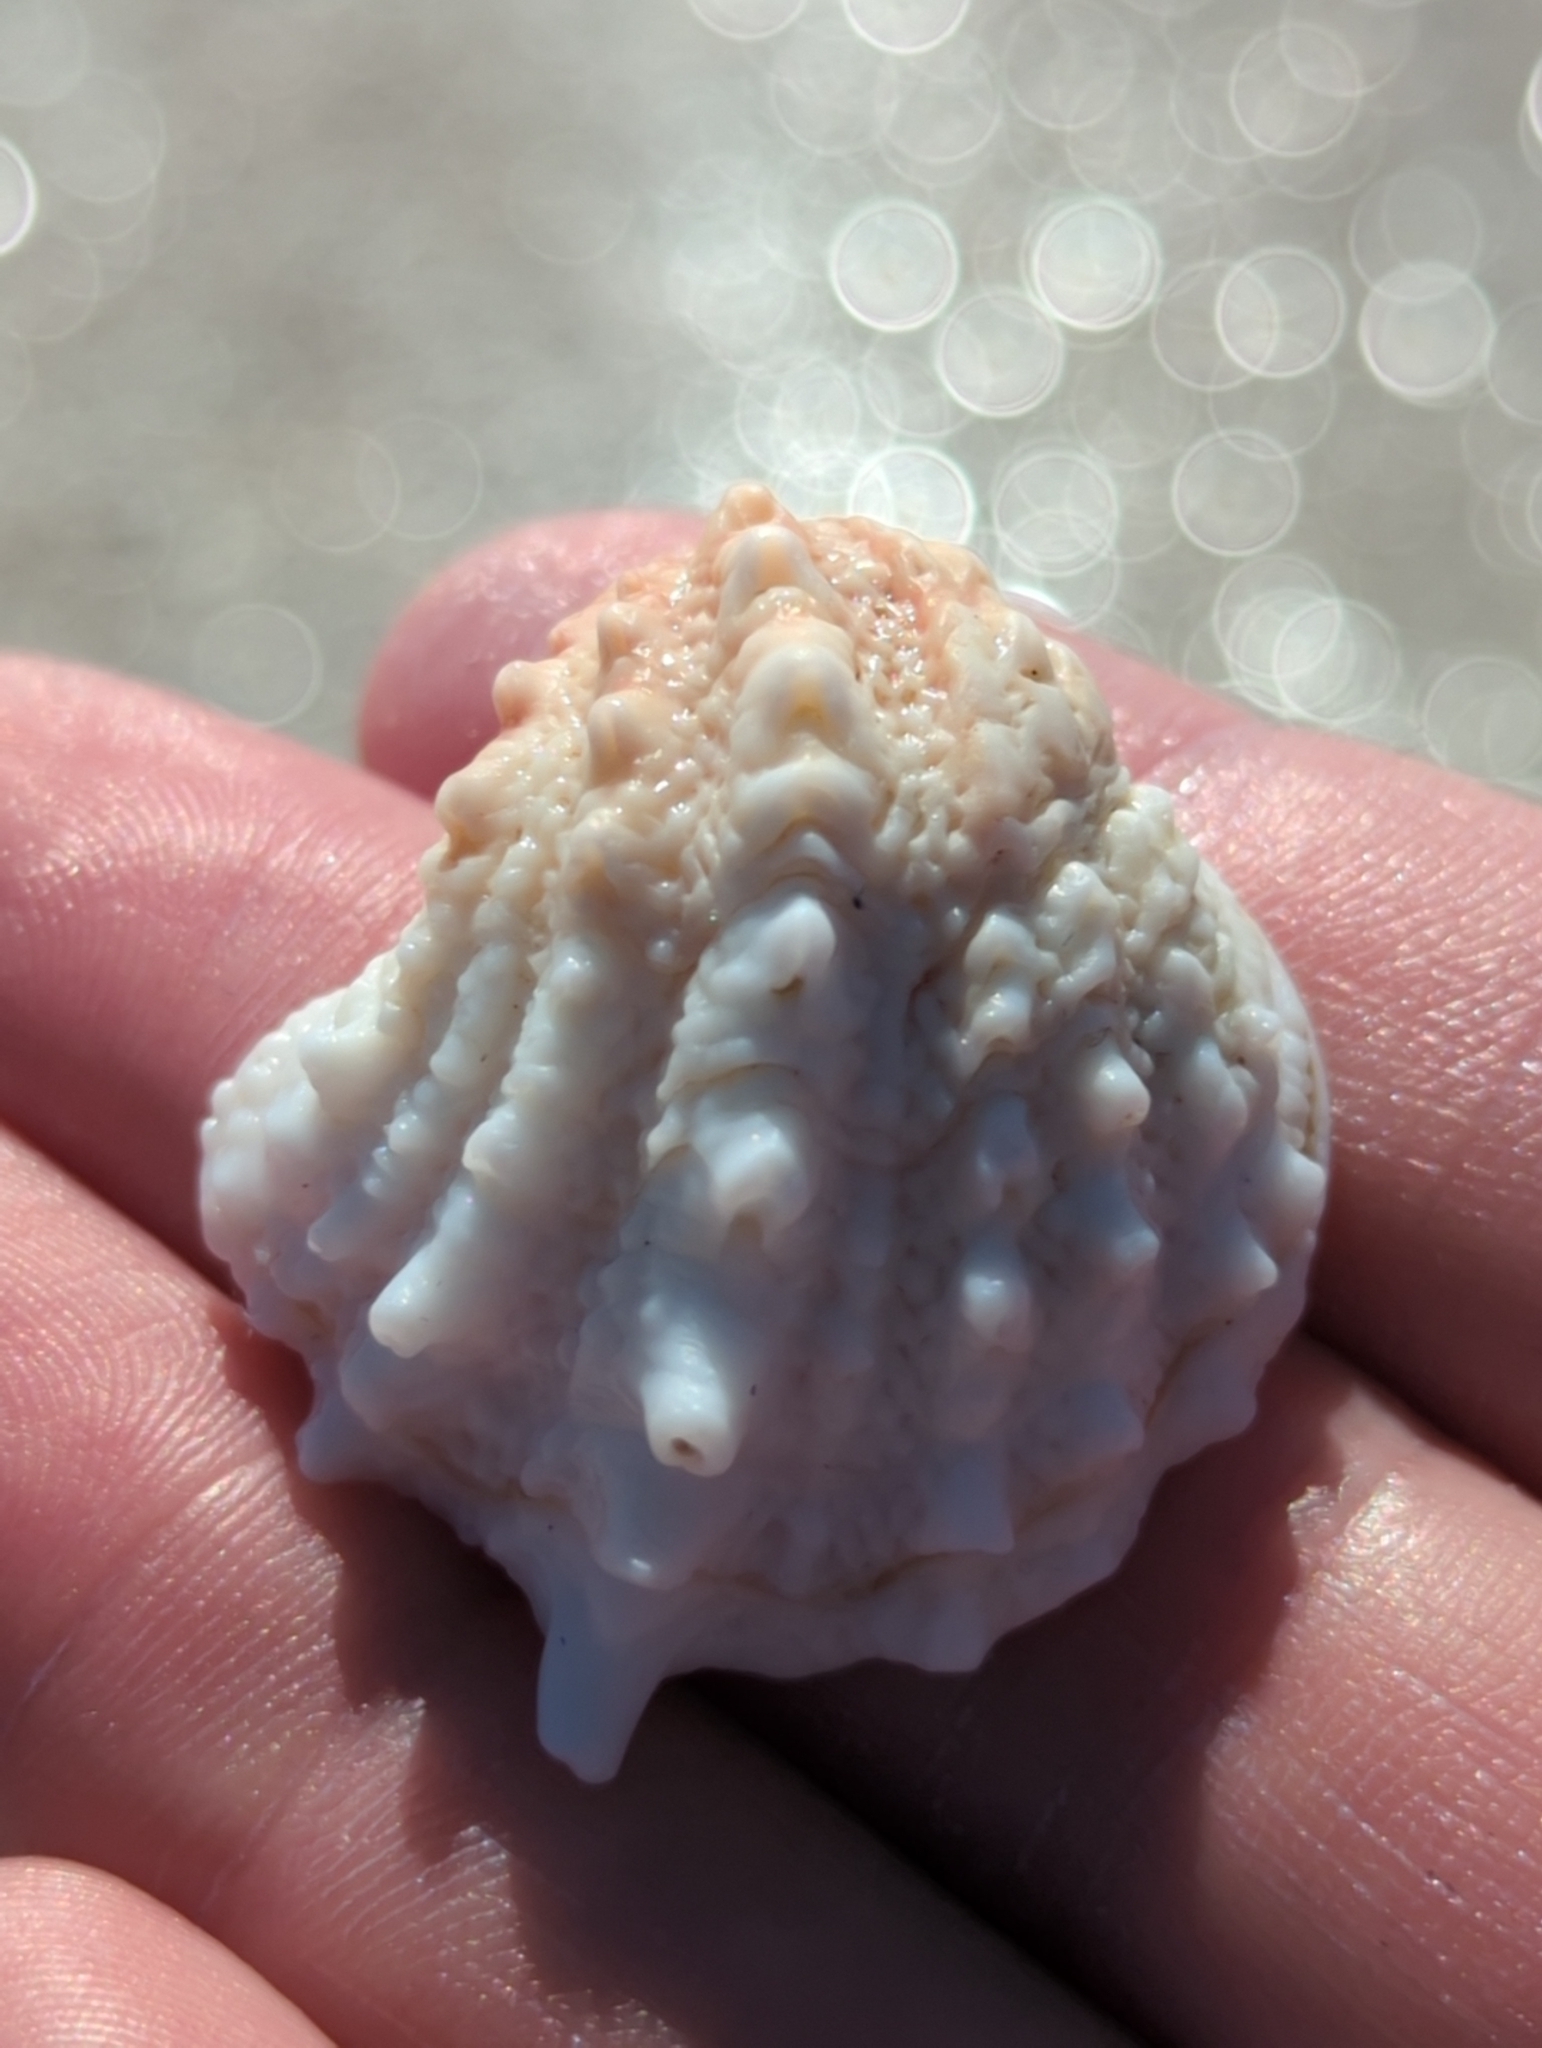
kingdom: Animalia
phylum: Mollusca
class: Bivalvia
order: Venerida
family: Chamidae
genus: Arcinella
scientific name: Arcinella cornuta
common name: Florida spiny jewel box
